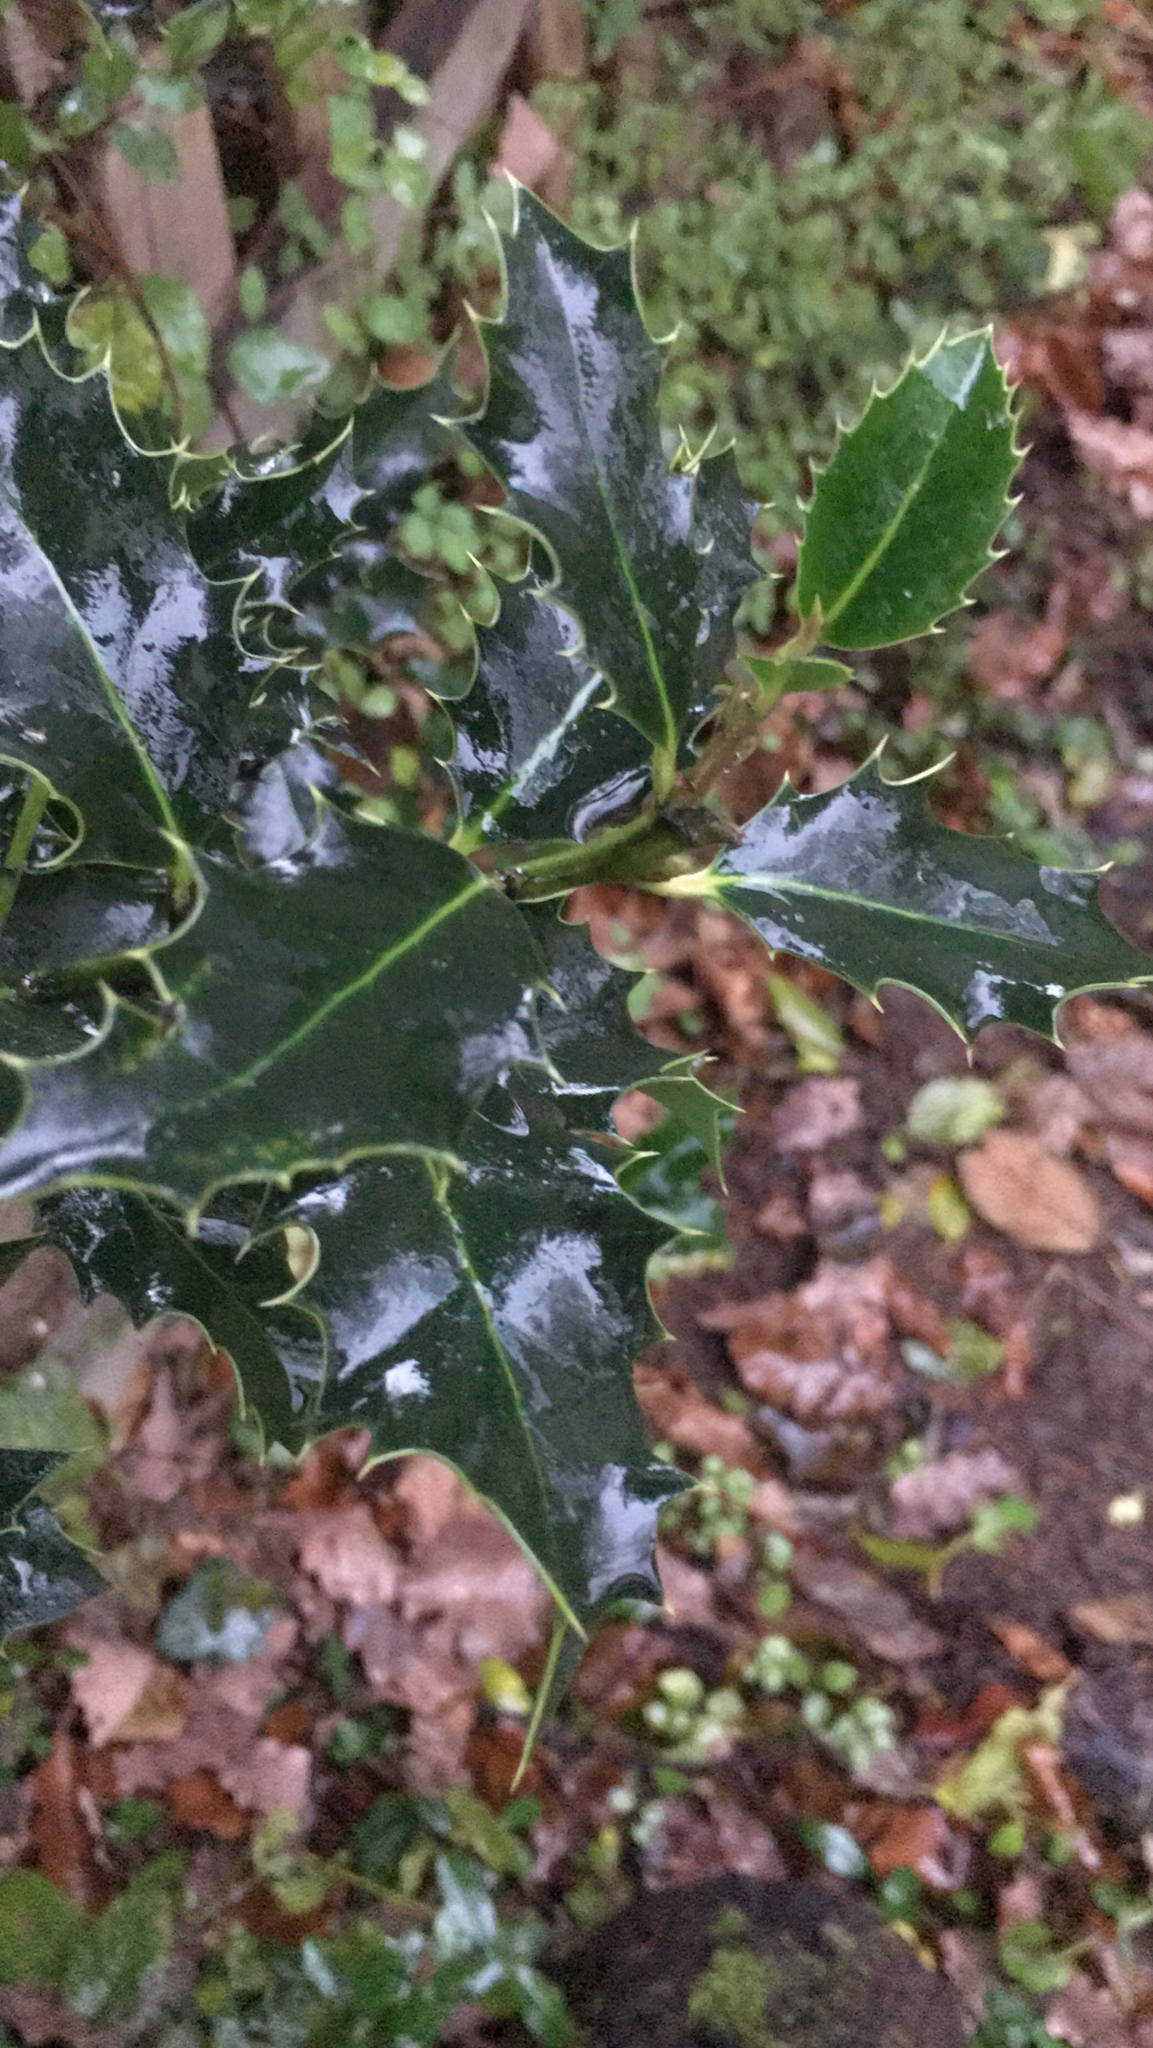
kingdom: Plantae
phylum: Tracheophyta
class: Magnoliopsida
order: Aquifoliales
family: Aquifoliaceae
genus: Ilex
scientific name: Ilex aquifolium
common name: English holly
